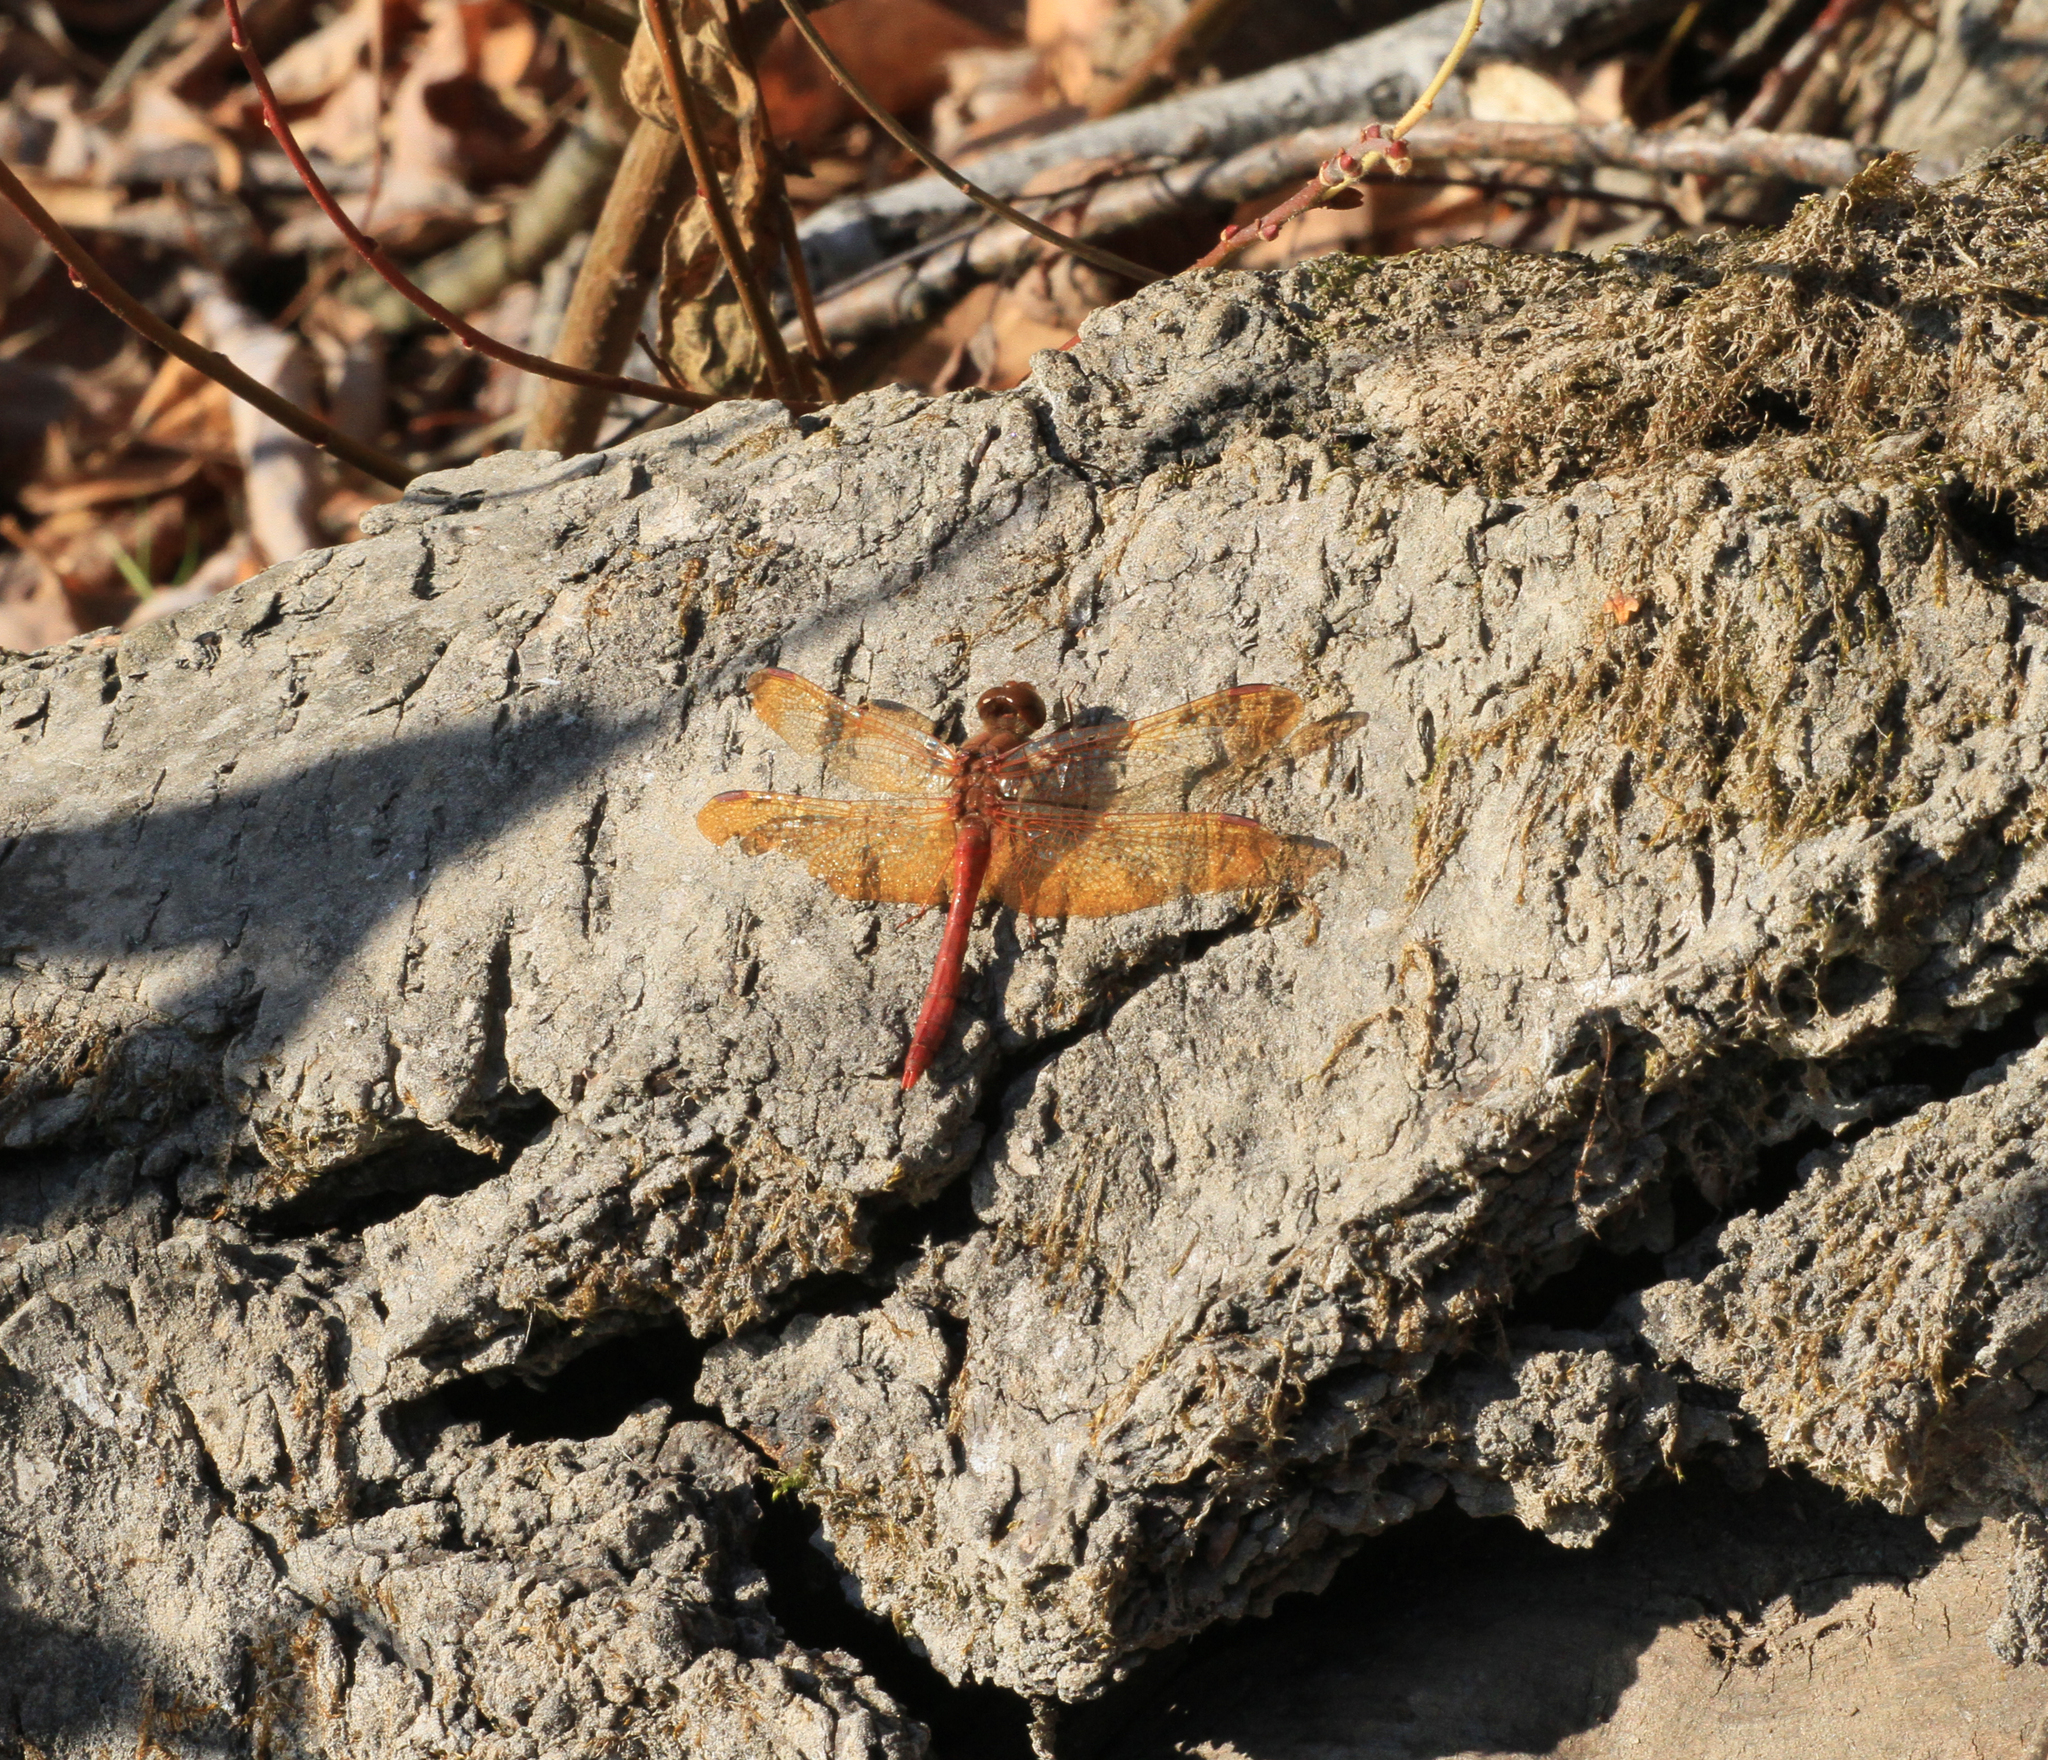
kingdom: Animalia
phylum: Arthropoda
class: Insecta
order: Odonata
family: Libellulidae
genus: Sympetrum
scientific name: Sympetrum croceolum
